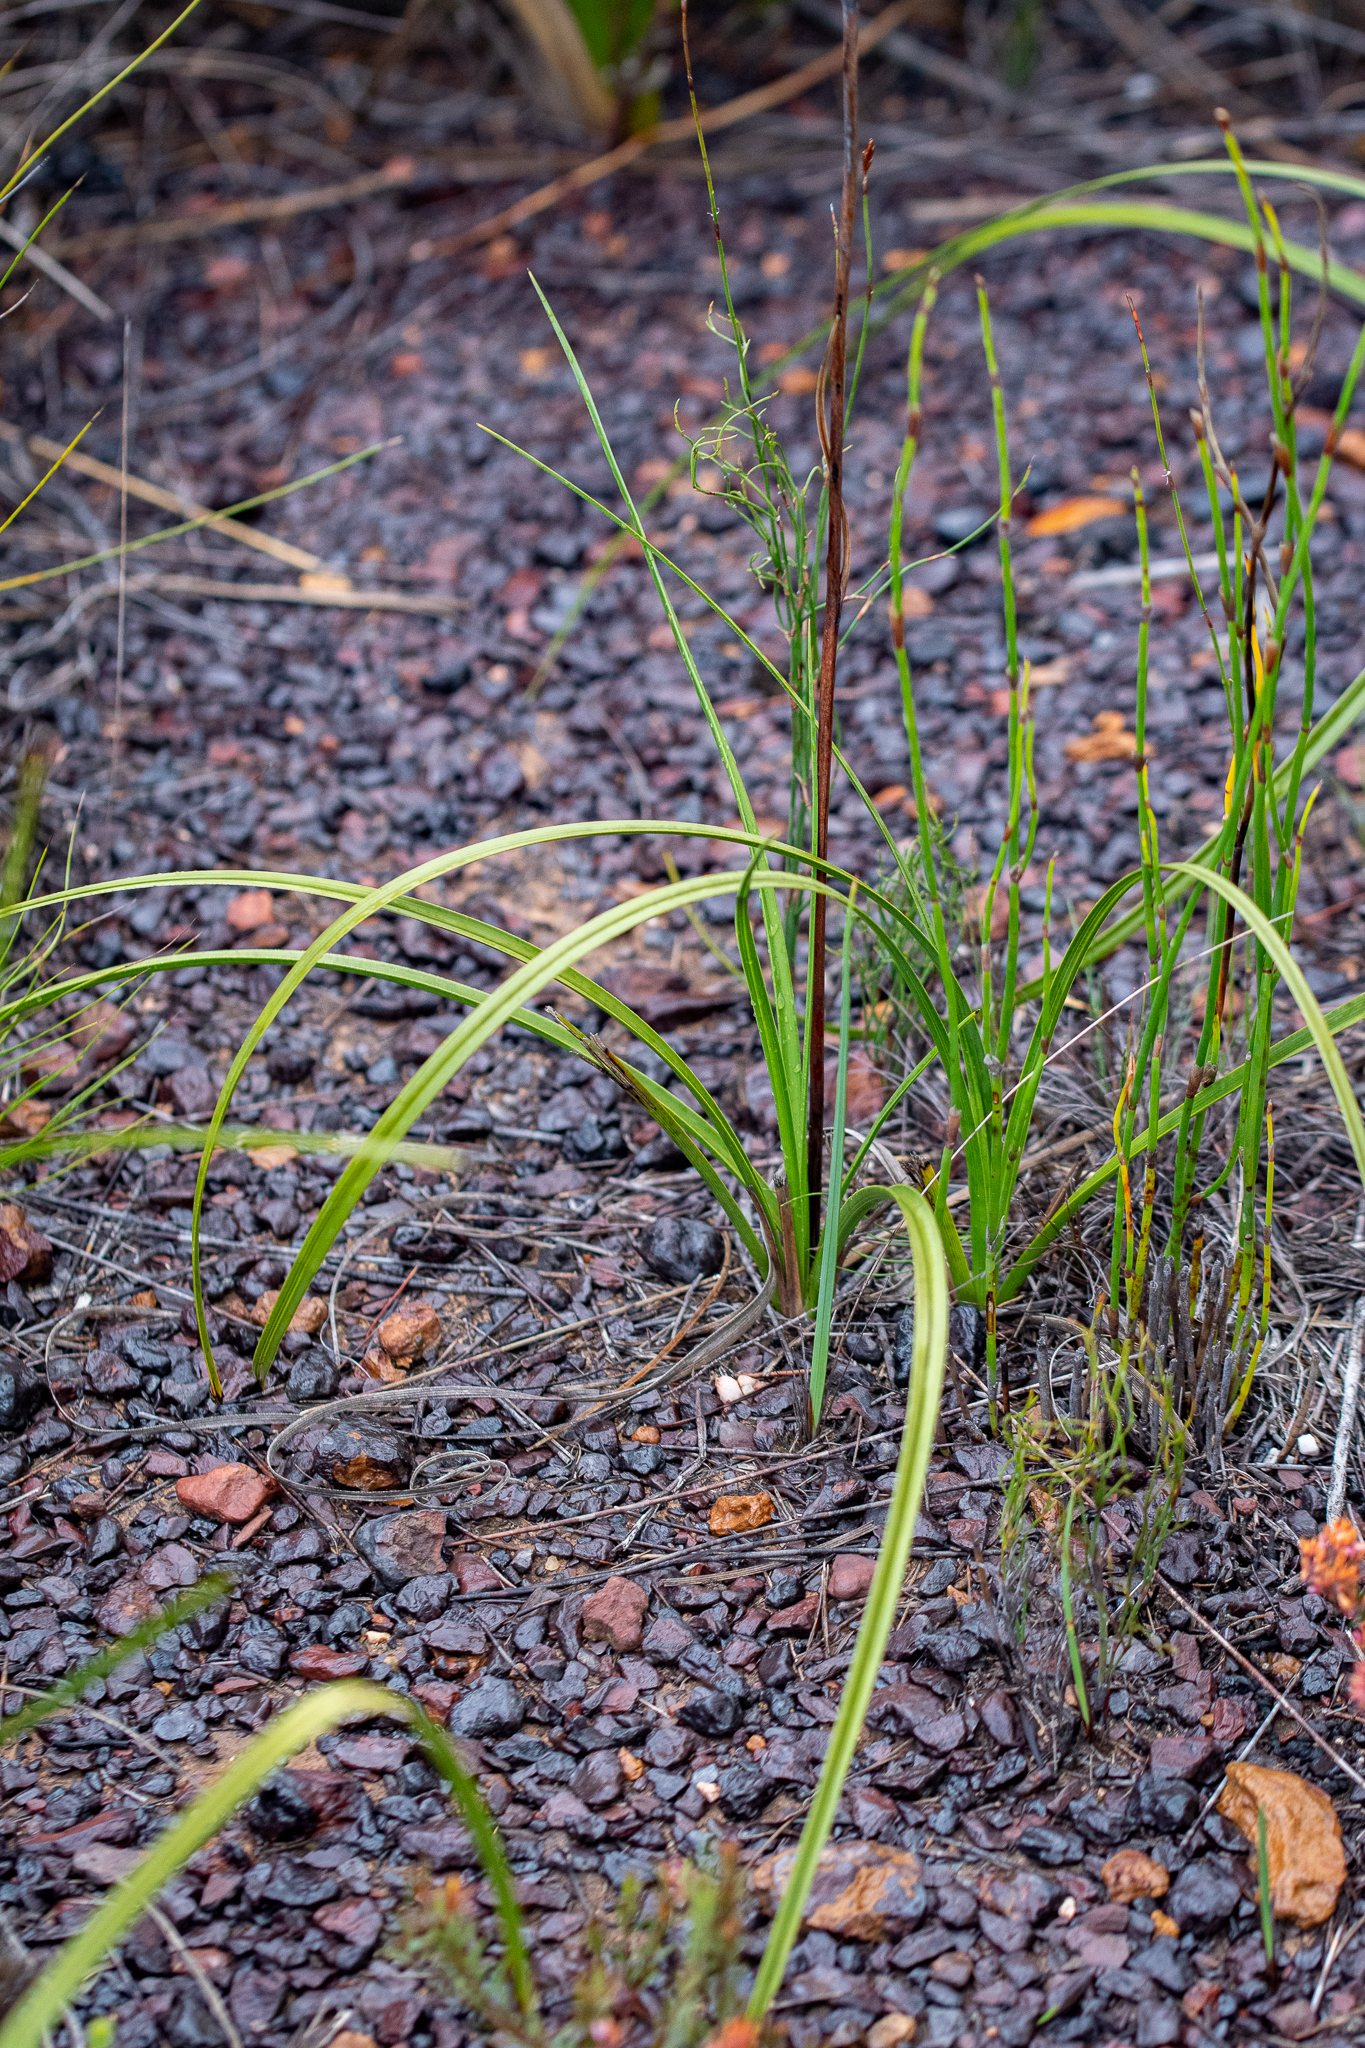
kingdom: Plantae
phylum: Tracheophyta
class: Liliopsida
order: Asparagales
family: Lanariaceae
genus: Lanaria
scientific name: Lanaria lanata
